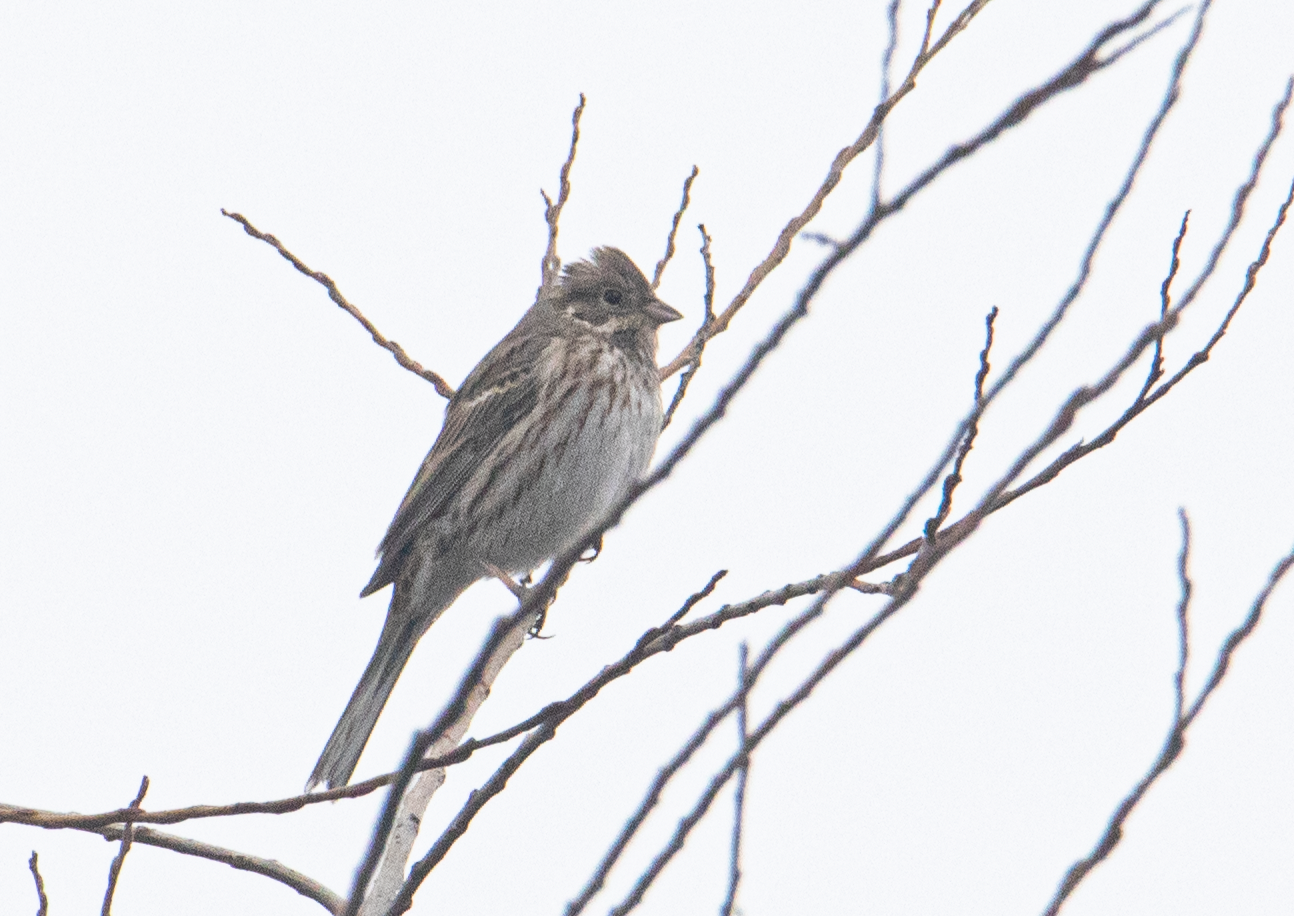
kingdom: Animalia
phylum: Chordata
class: Aves
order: Passeriformes
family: Emberizidae
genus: Emberiza
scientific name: Emberiza leucocephalos
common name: Pine bunting
